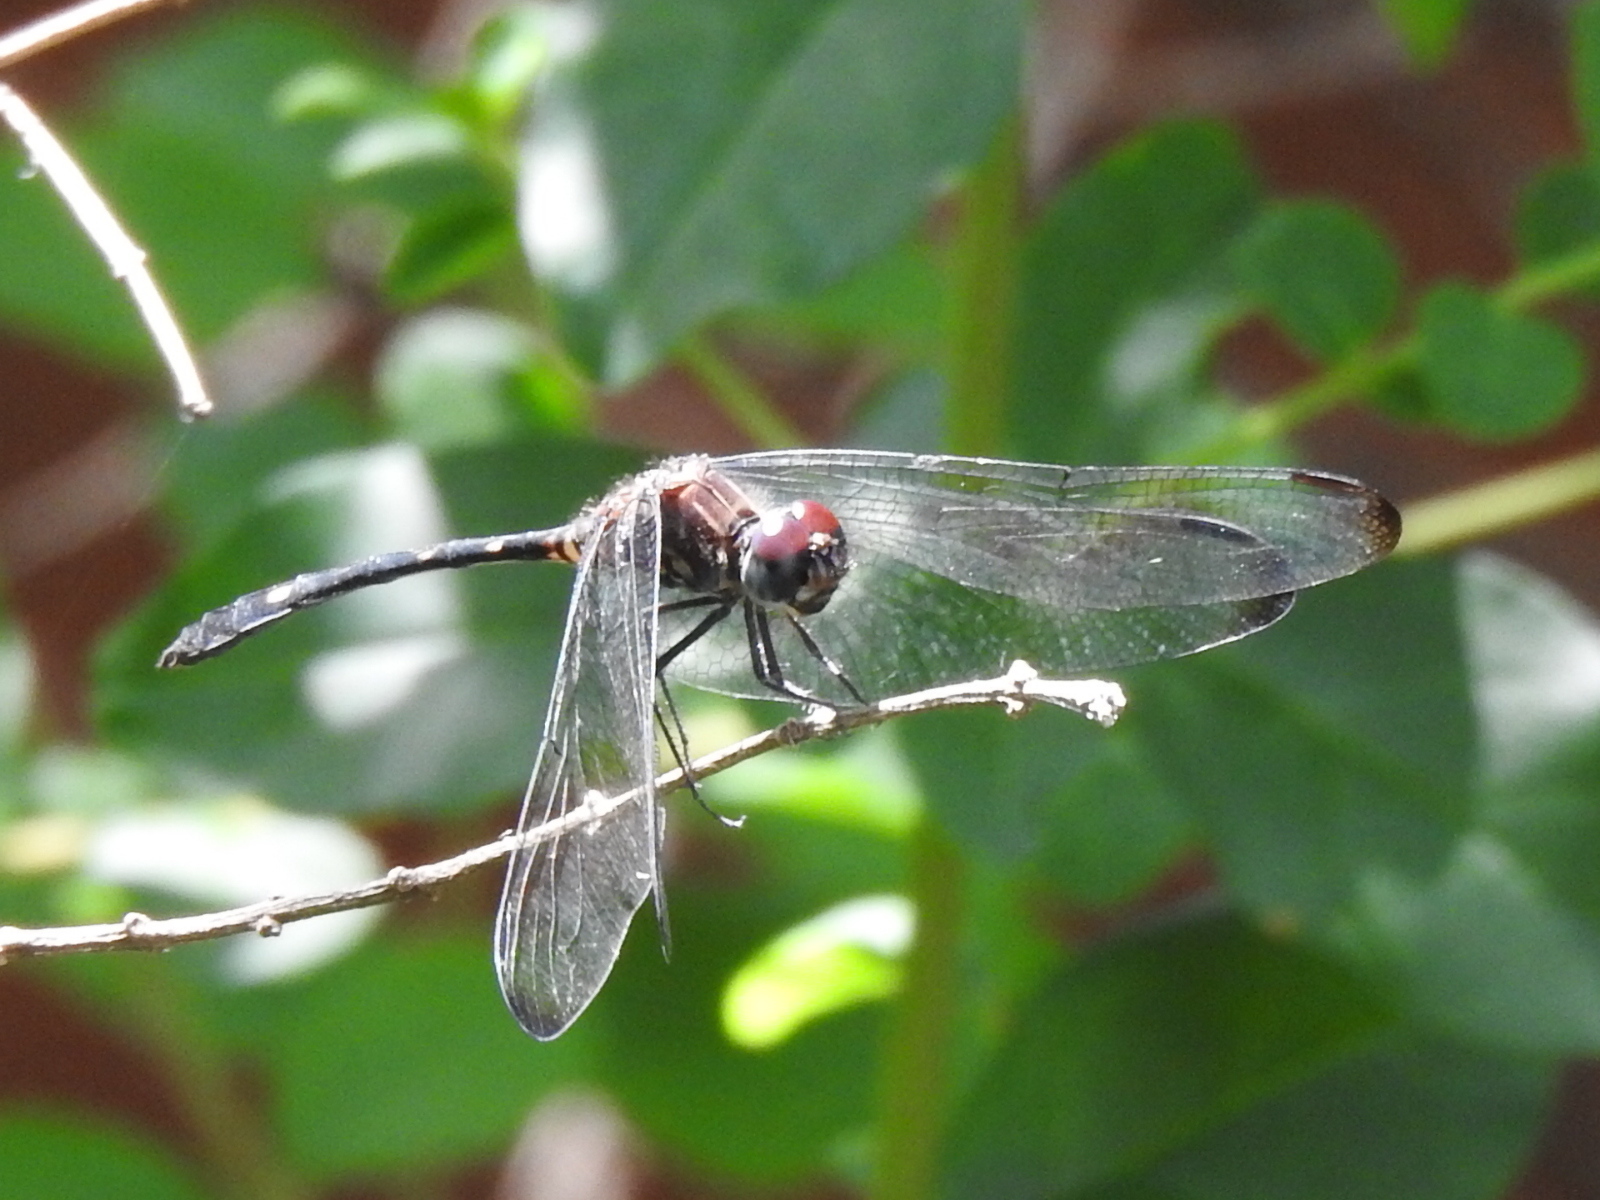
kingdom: Animalia
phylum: Arthropoda
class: Insecta
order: Odonata
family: Libellulidae
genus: Dythemis
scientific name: Dythemis velox
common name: Swift setwing
